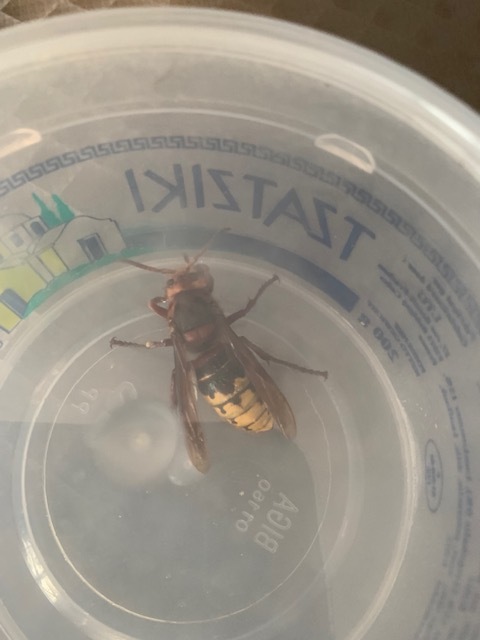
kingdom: Animalia
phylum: Arthropoda
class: Insecta
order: Hymenoptera
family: Vespidae
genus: Vespa
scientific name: Vespa crabro
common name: Hornet
